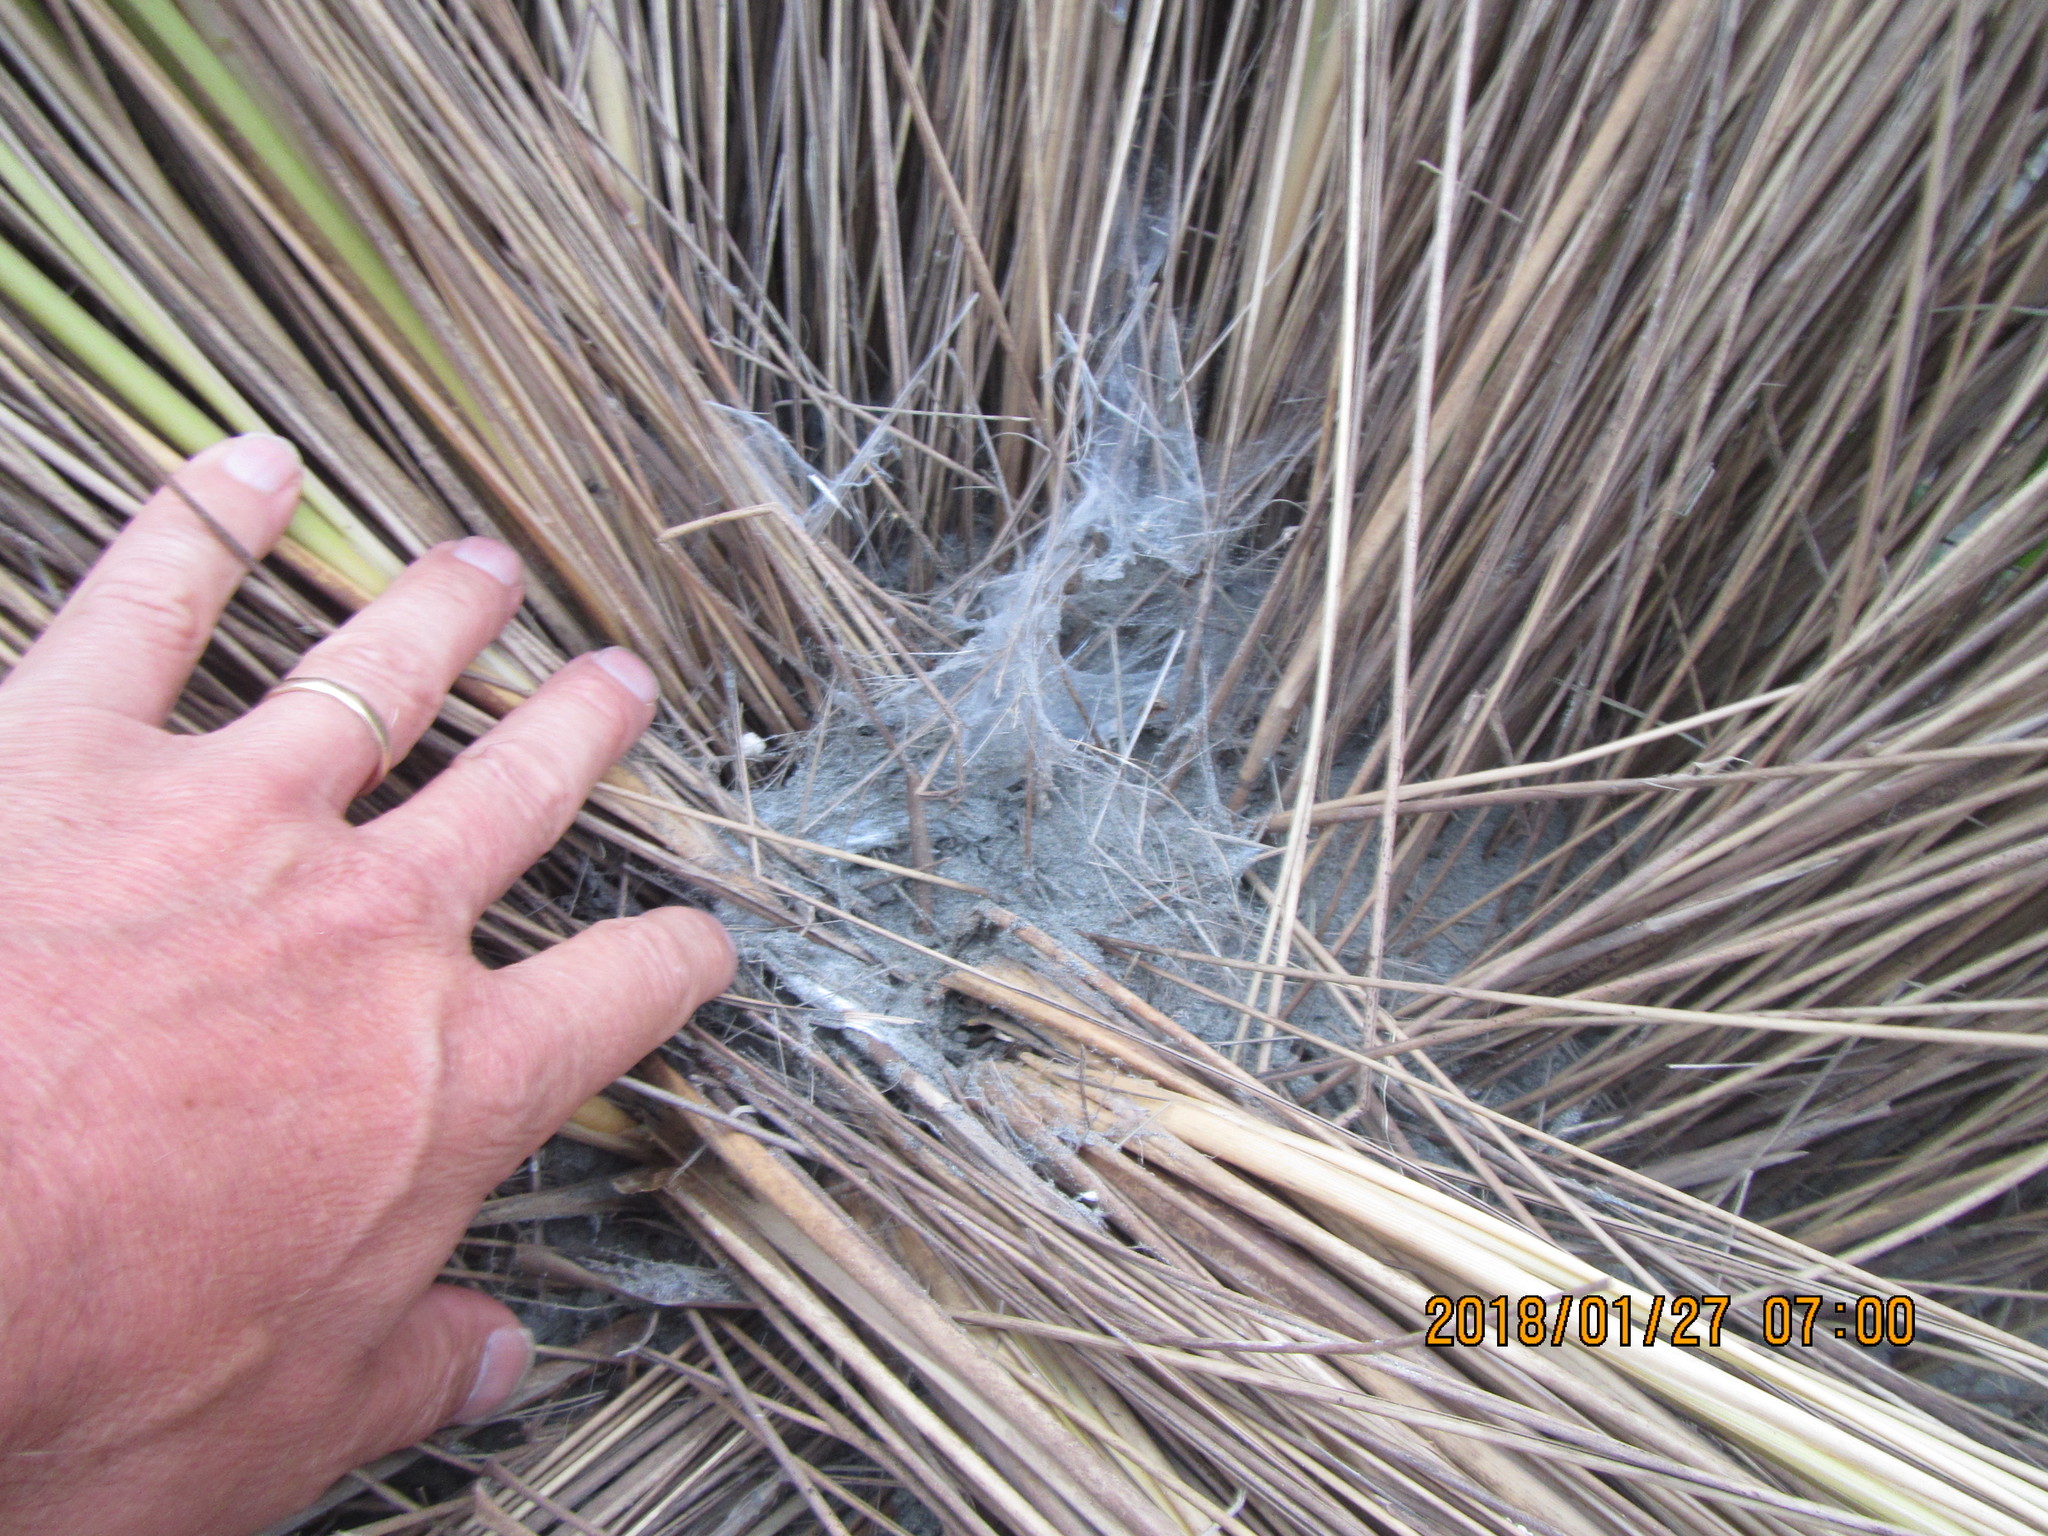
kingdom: Animalia
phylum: Arthropoda
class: Arachnida
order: Araneae
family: Porrhothelidae
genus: Porrhothele
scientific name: Porrhothele antipodiana
